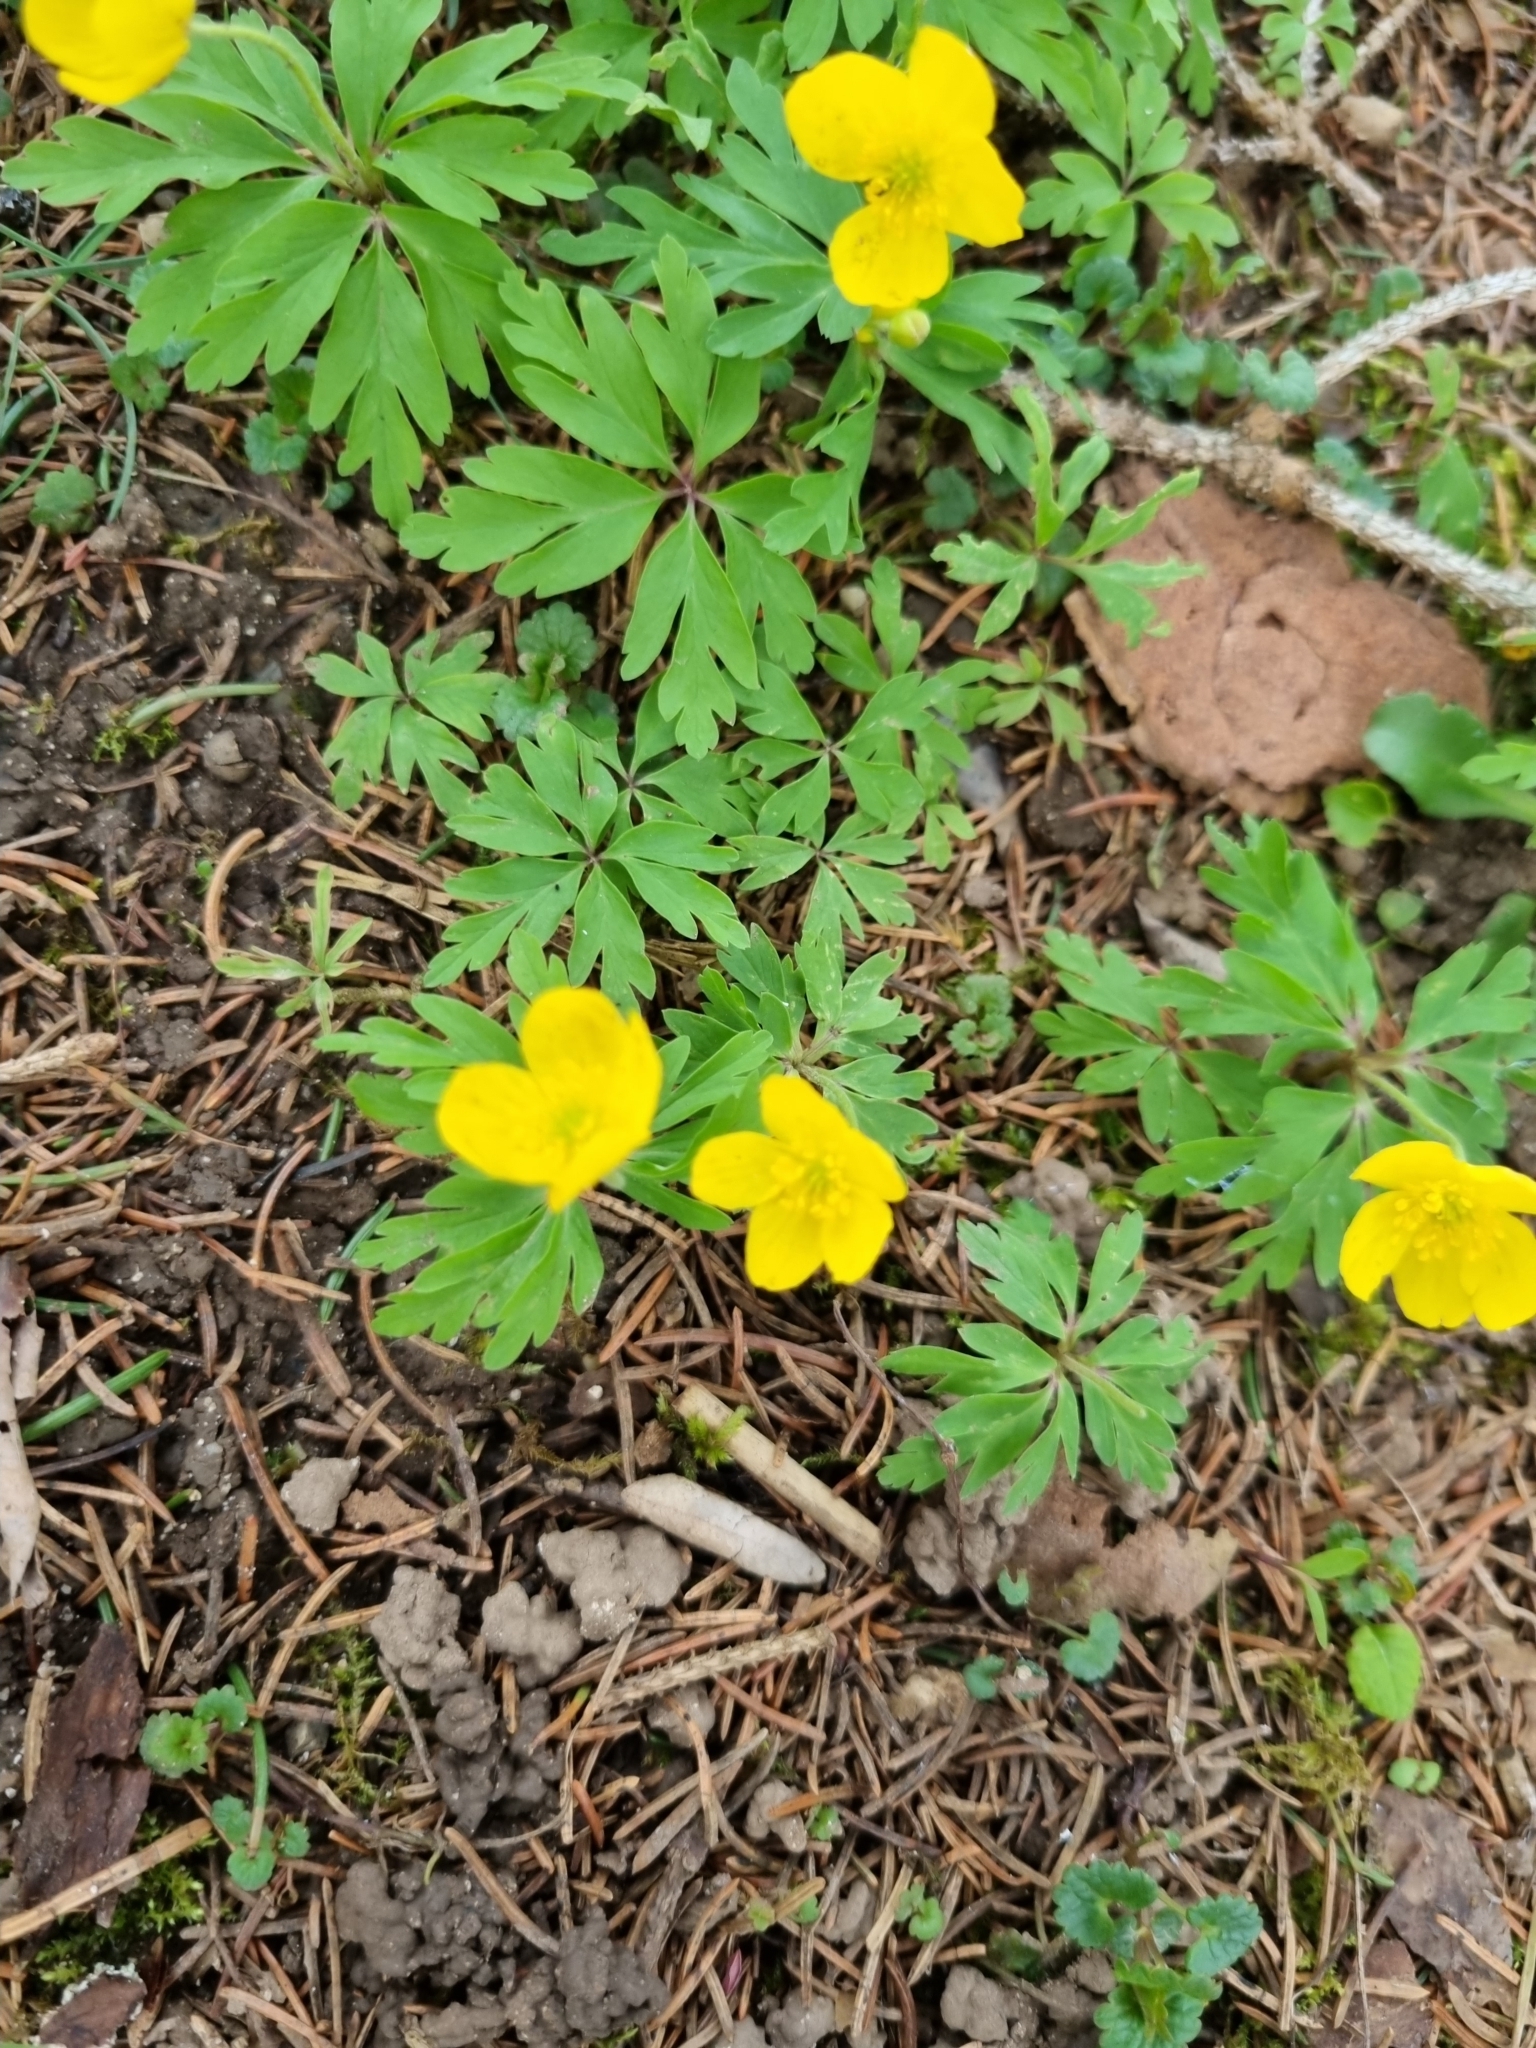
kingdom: Plantae
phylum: Tracheophyta
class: Magnoliopsida
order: Ranunculales
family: Ranunculaceae
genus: Anemone
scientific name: Anemone ranunculoides
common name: Yellow anemone
